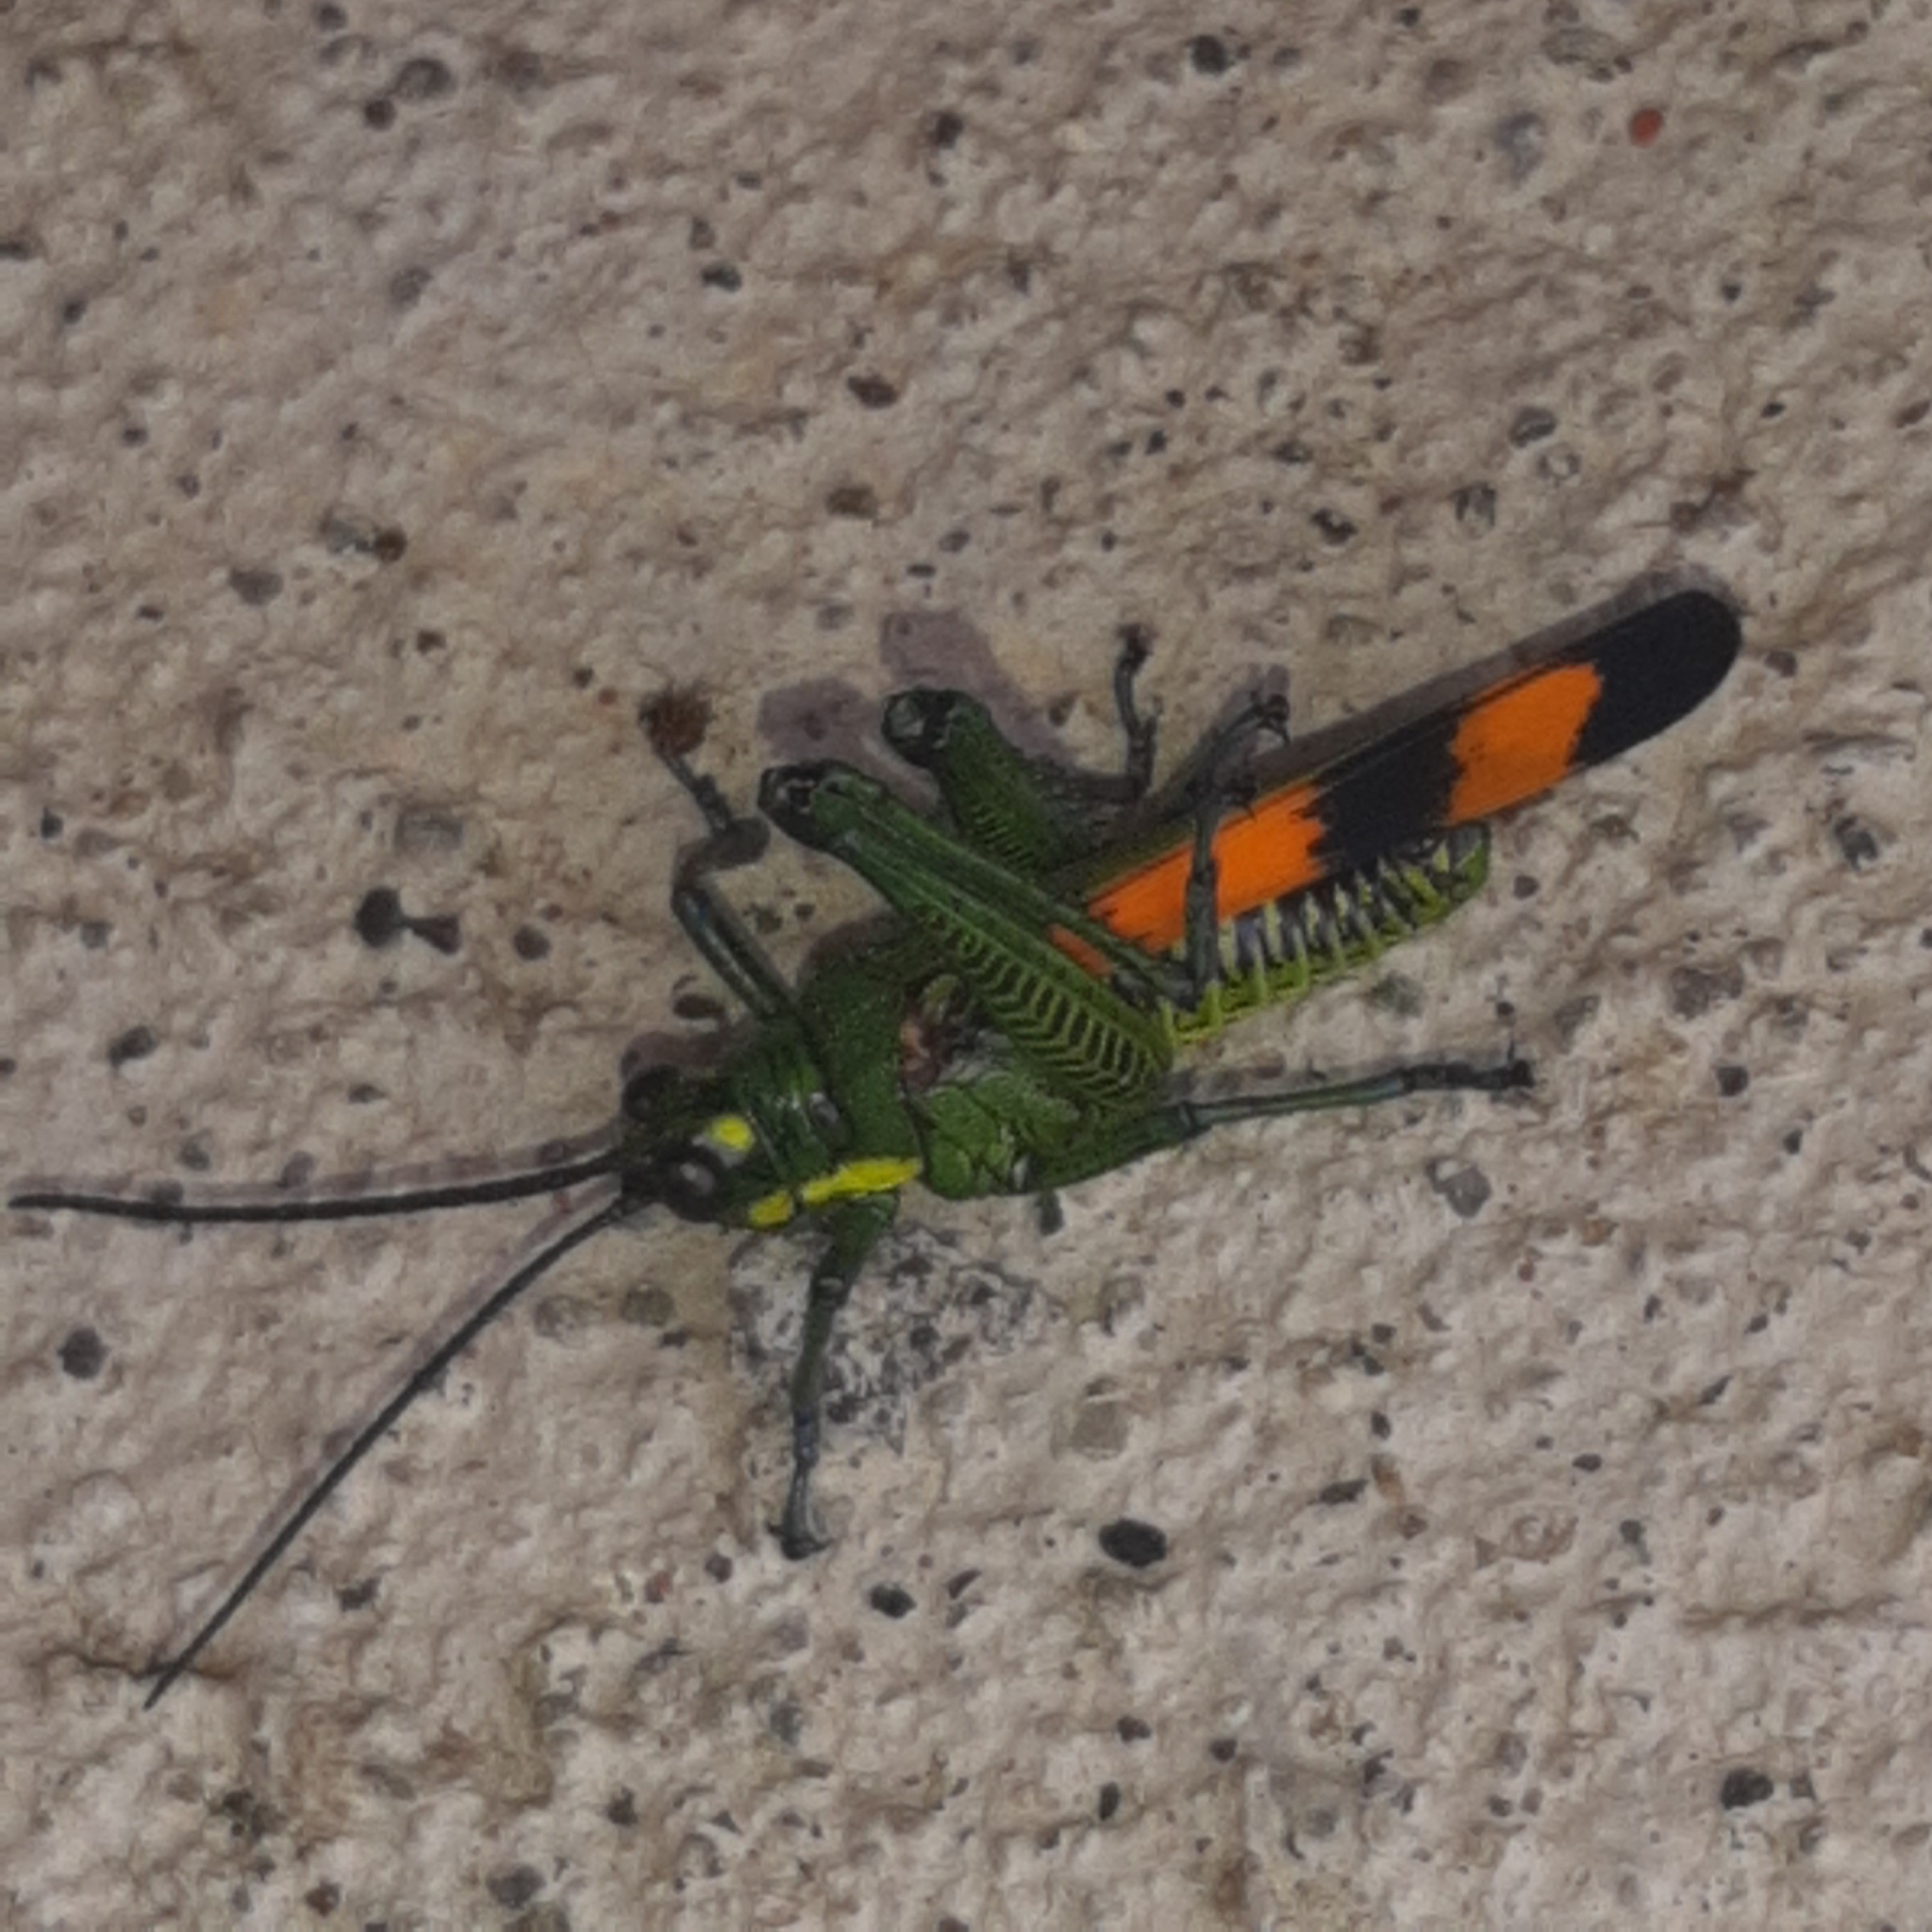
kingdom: Animalia
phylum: Arthropoda
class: Insecta
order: Orthoptera
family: Romaleidae
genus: Chromacris
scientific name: Chromacris trogon
